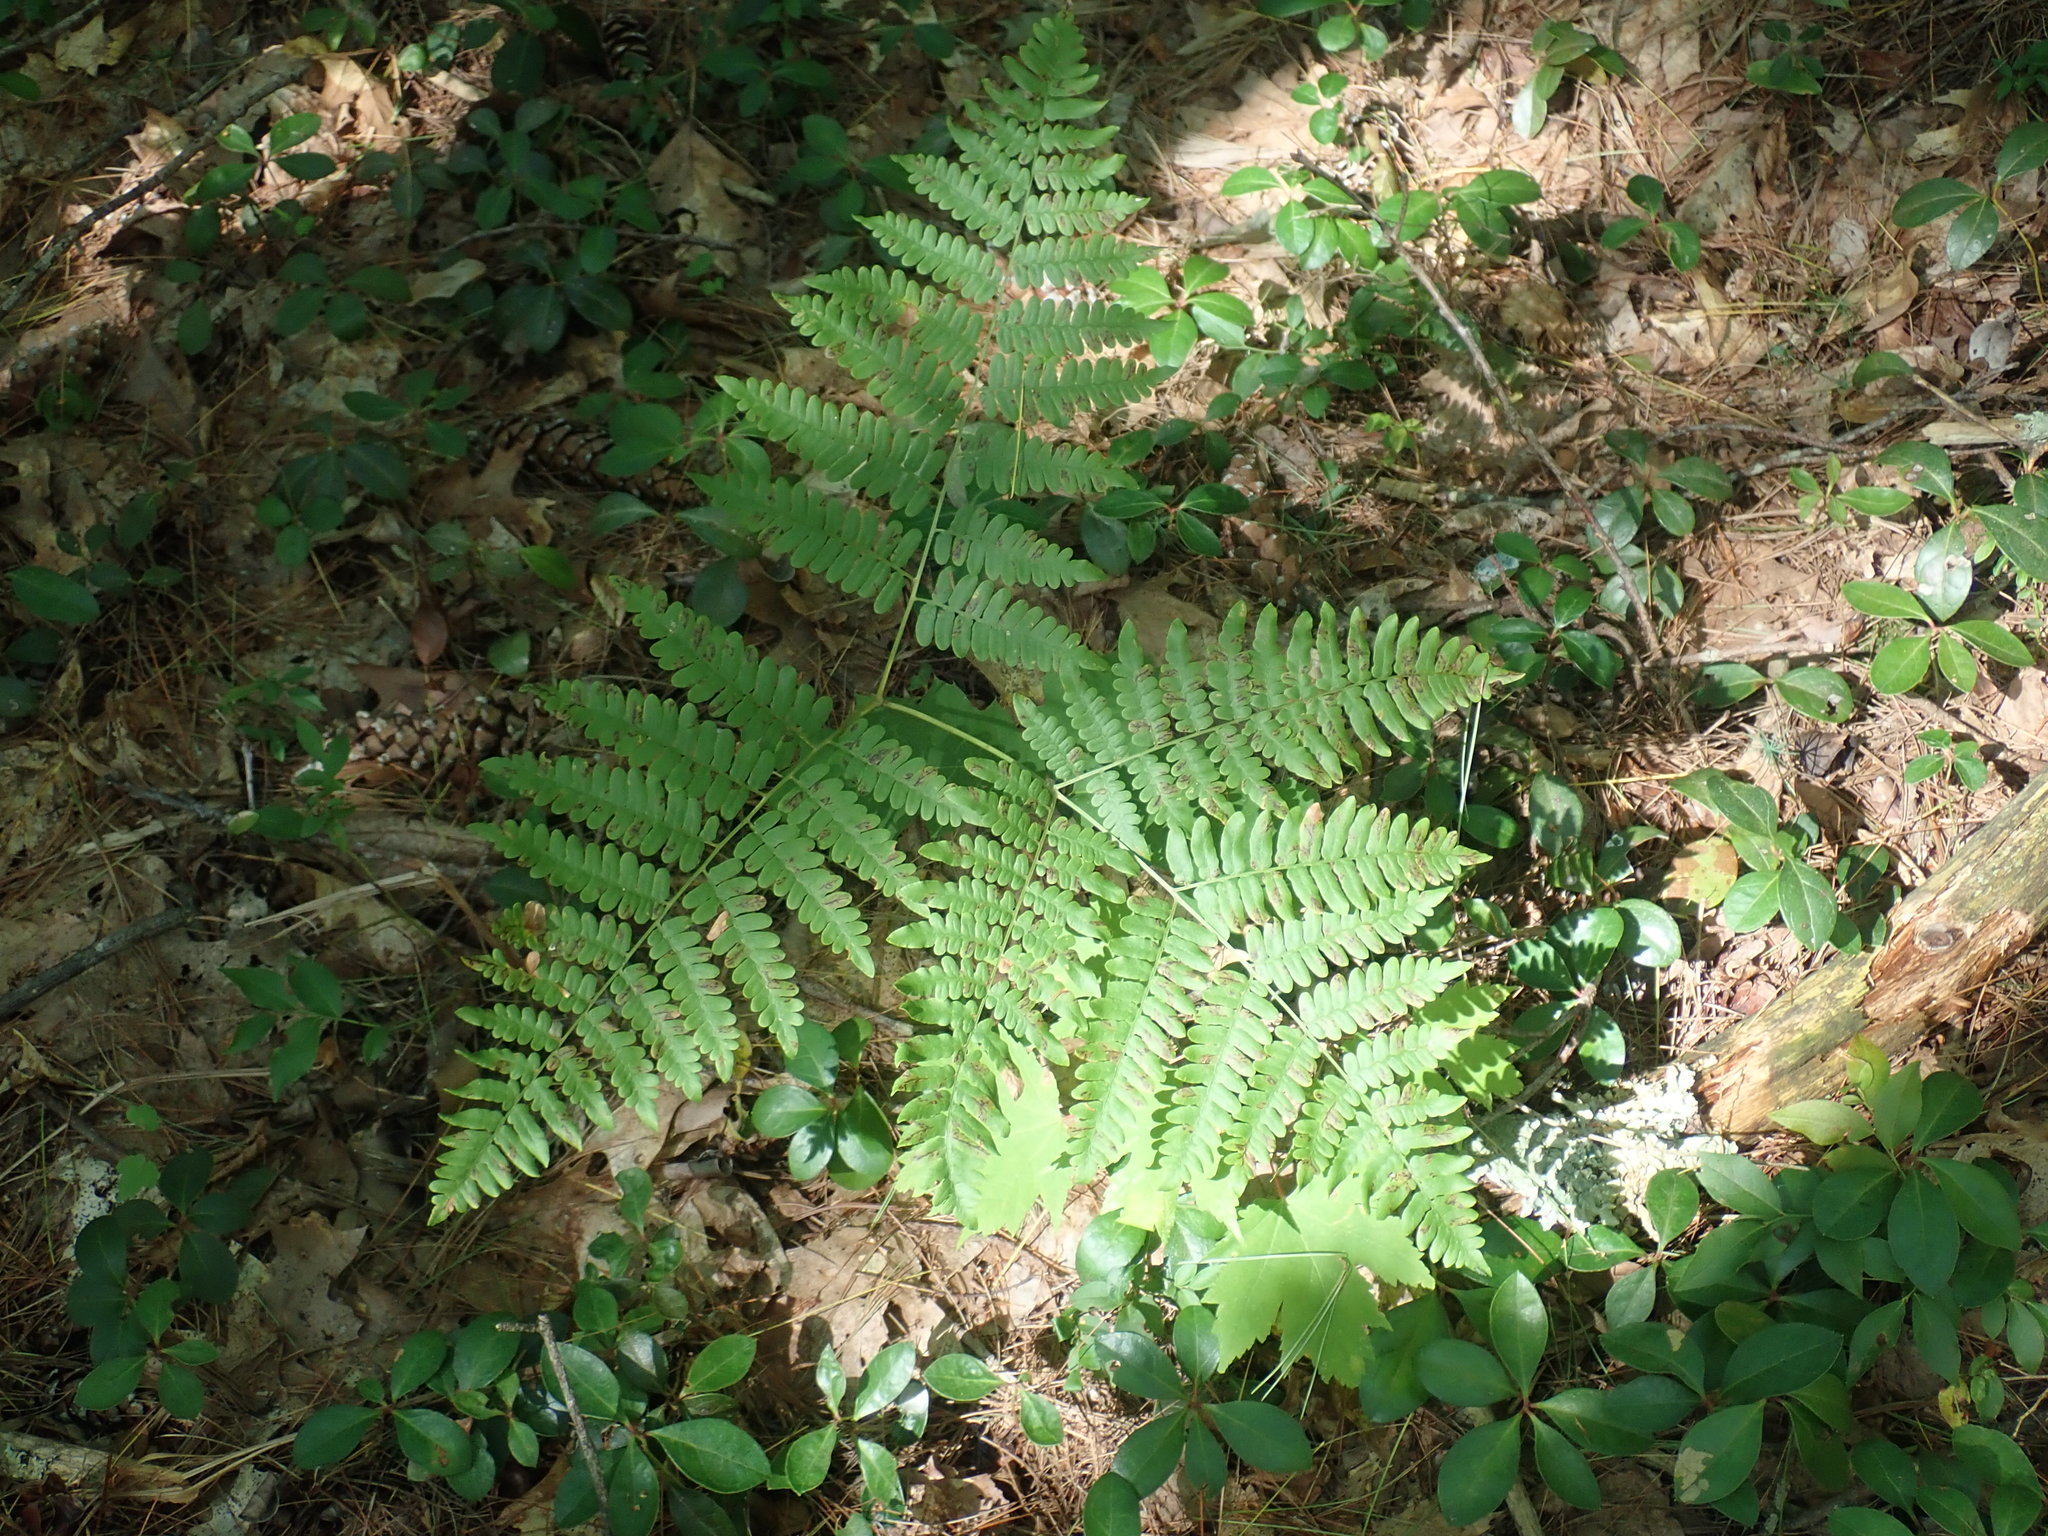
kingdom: Plantae
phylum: Tracheophyta
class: Polypodiopsida
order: Polypodiales
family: Dennstaedtiaceae
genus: Pteridium
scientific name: Pteridium aquilinum
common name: Bracken
